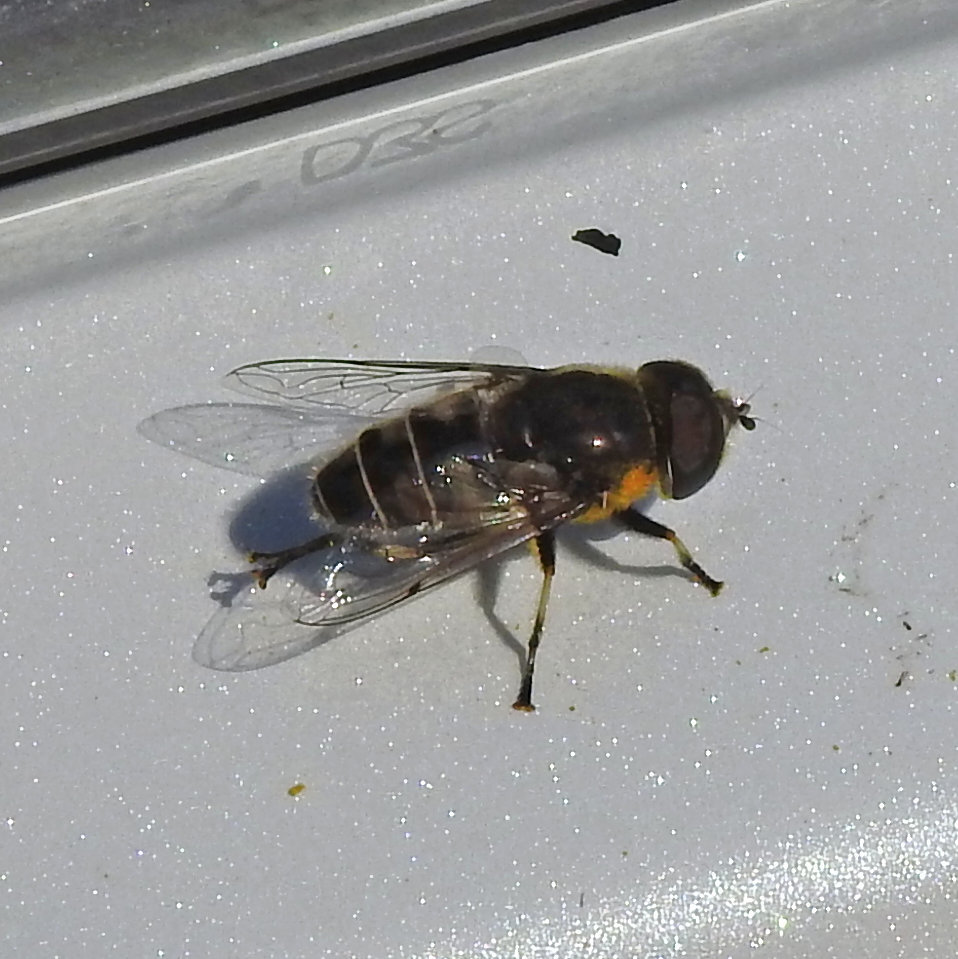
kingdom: Animalia
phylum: Arthropoda
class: Insecta
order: Diptera
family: Syrphidae
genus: Eristalis
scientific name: Eristalis dimidiata
